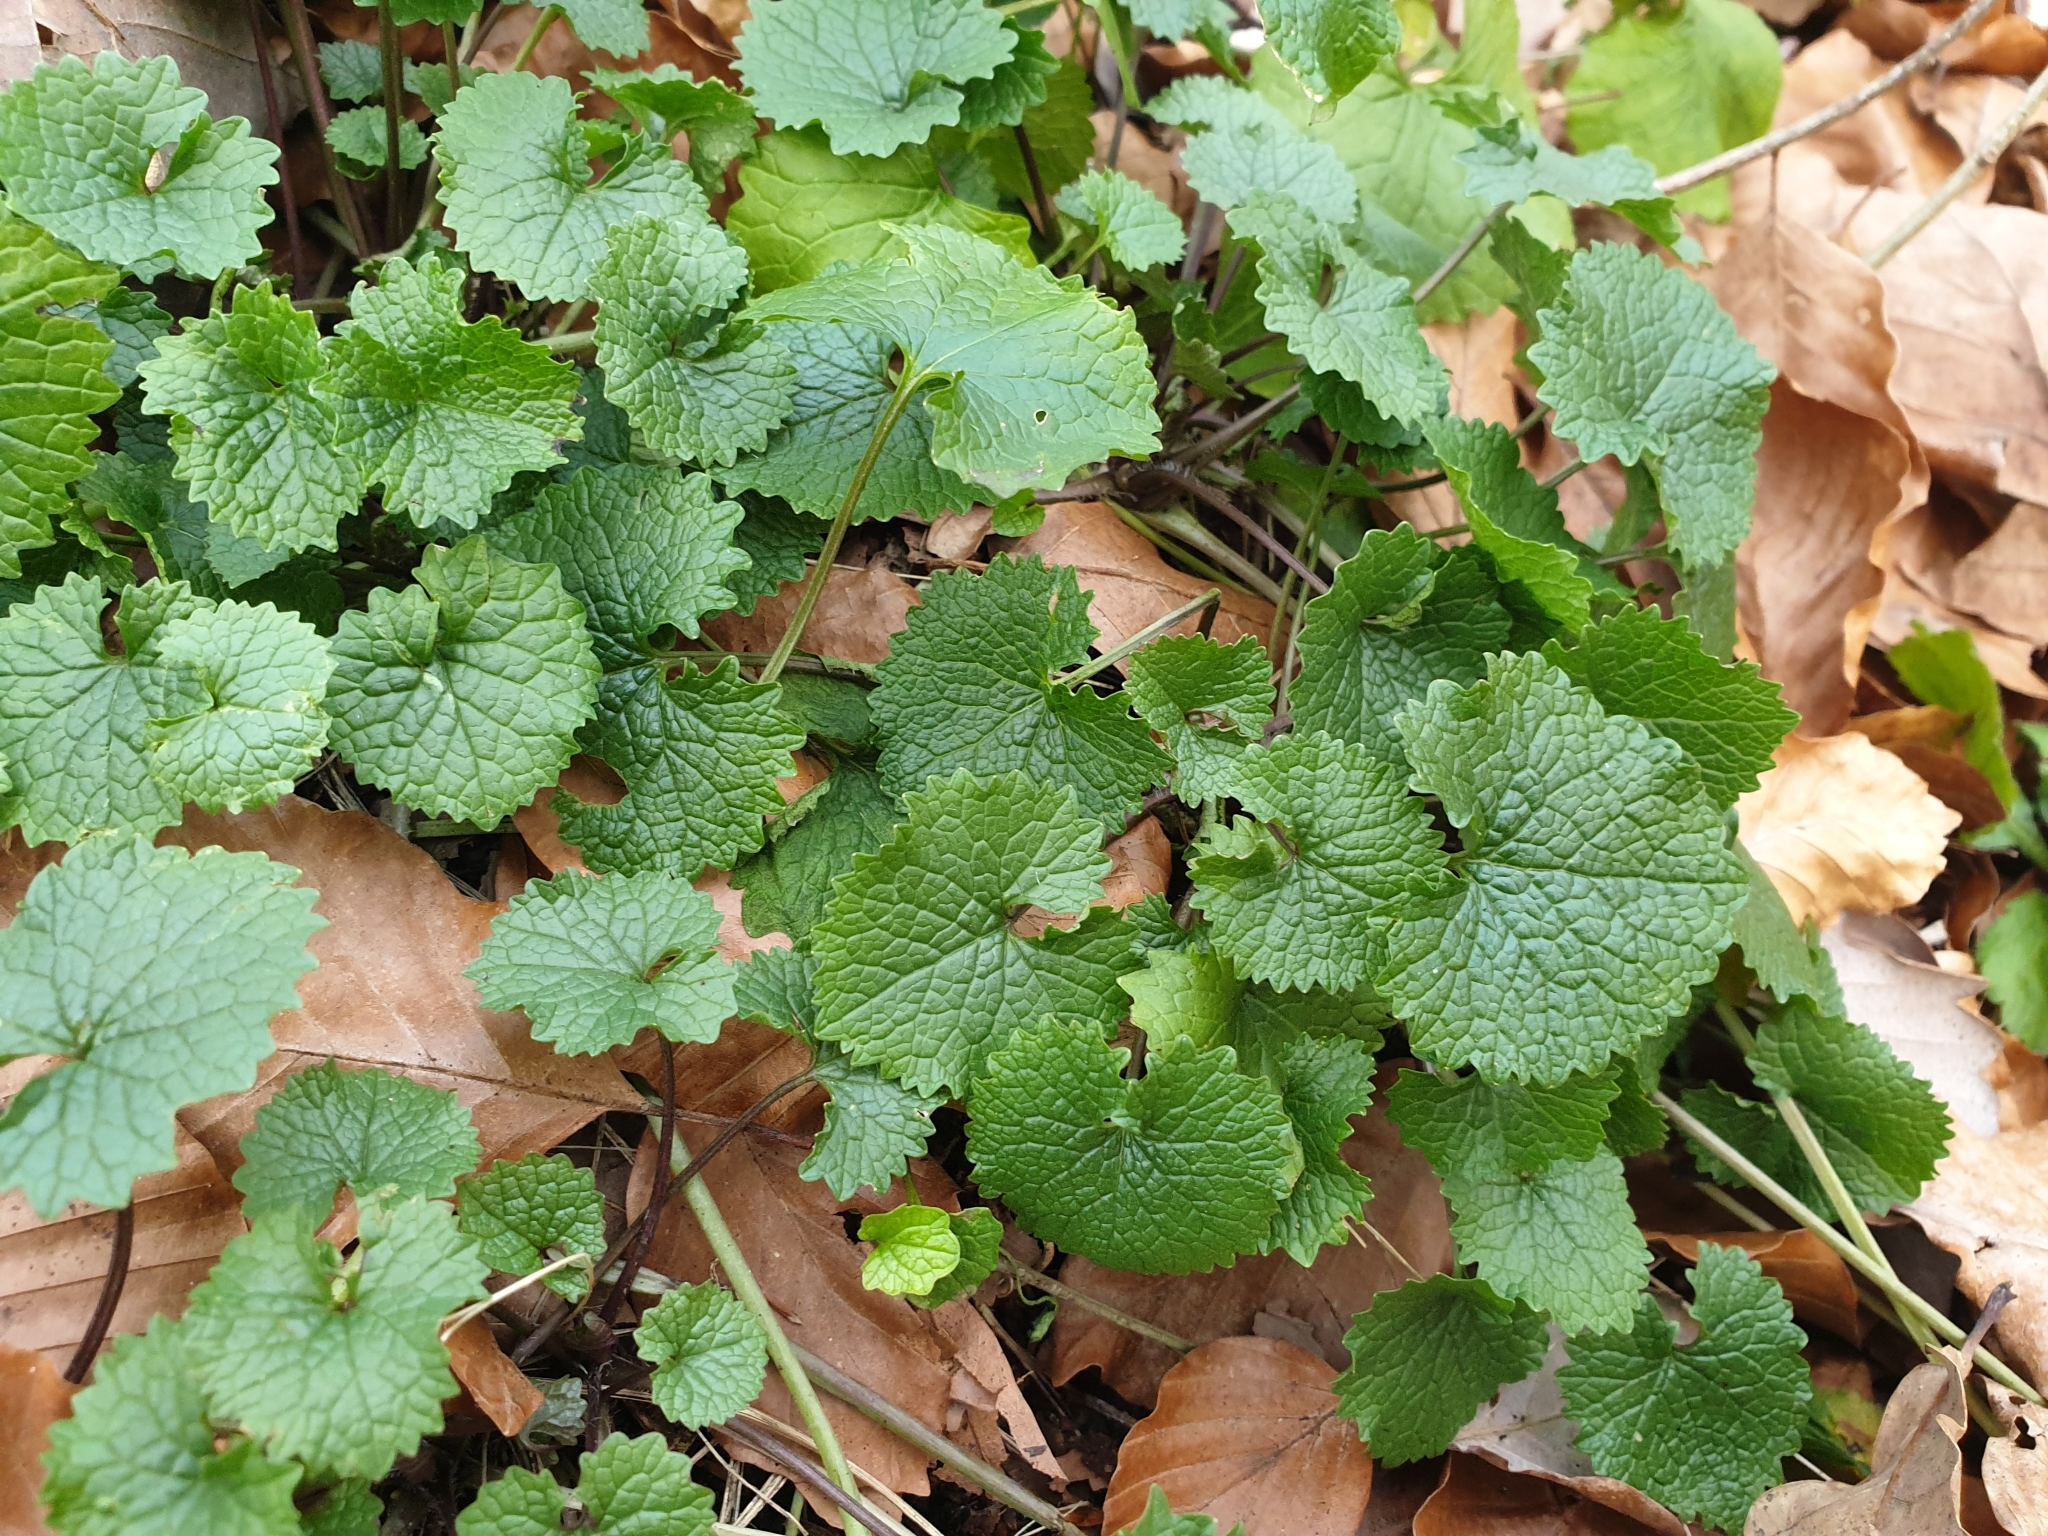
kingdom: Plantae
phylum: Tracheophyta
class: Magnoliopsida
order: Brassicales
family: Brassicaceae
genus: Alliaria
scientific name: Alliaria petiolata
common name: Garlic mustard
